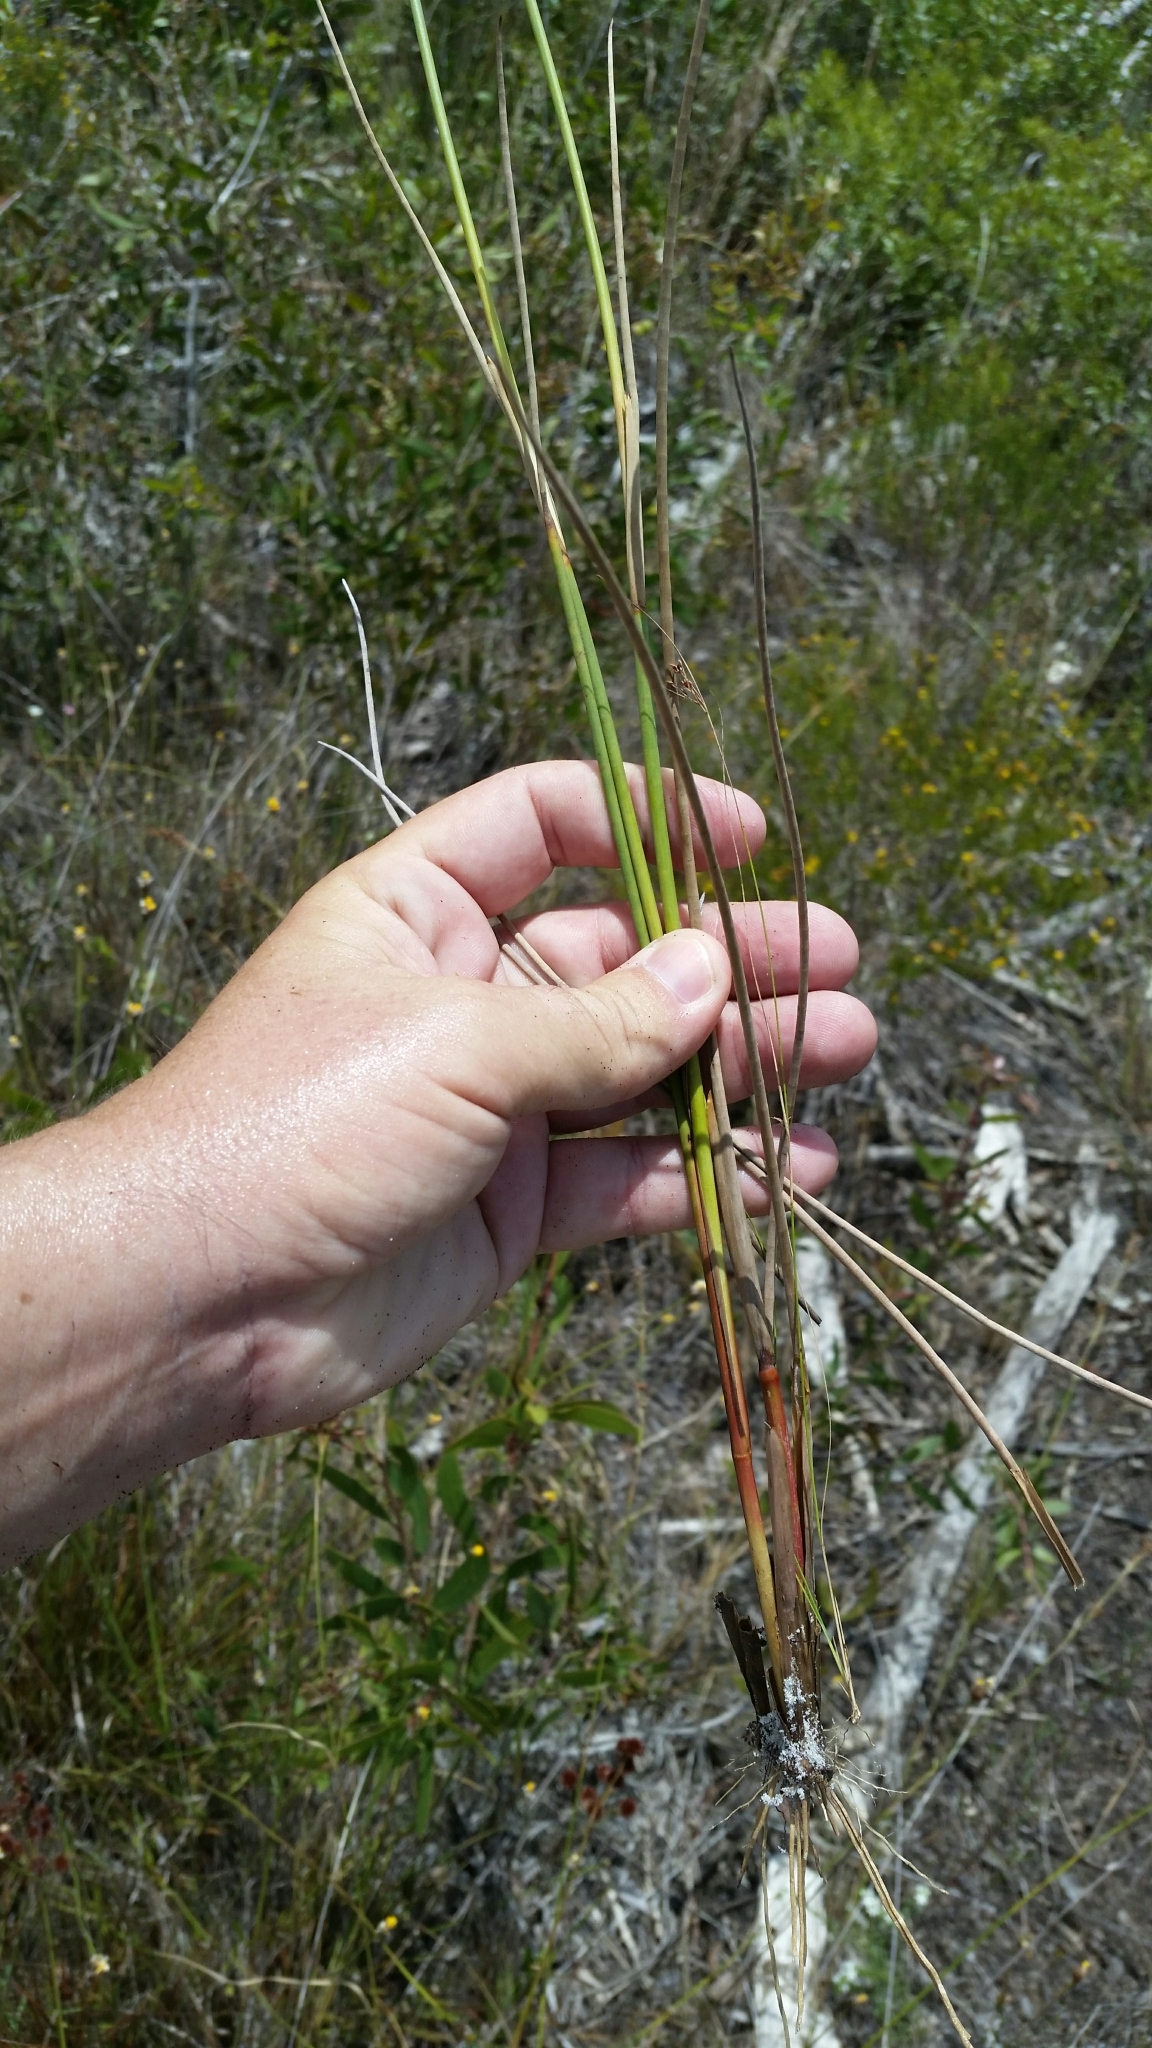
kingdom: Plantae
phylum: Tracheophyta
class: Liliopsida
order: Poales
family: Juncaceae
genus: Juncus
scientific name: Juncus megacephalus
